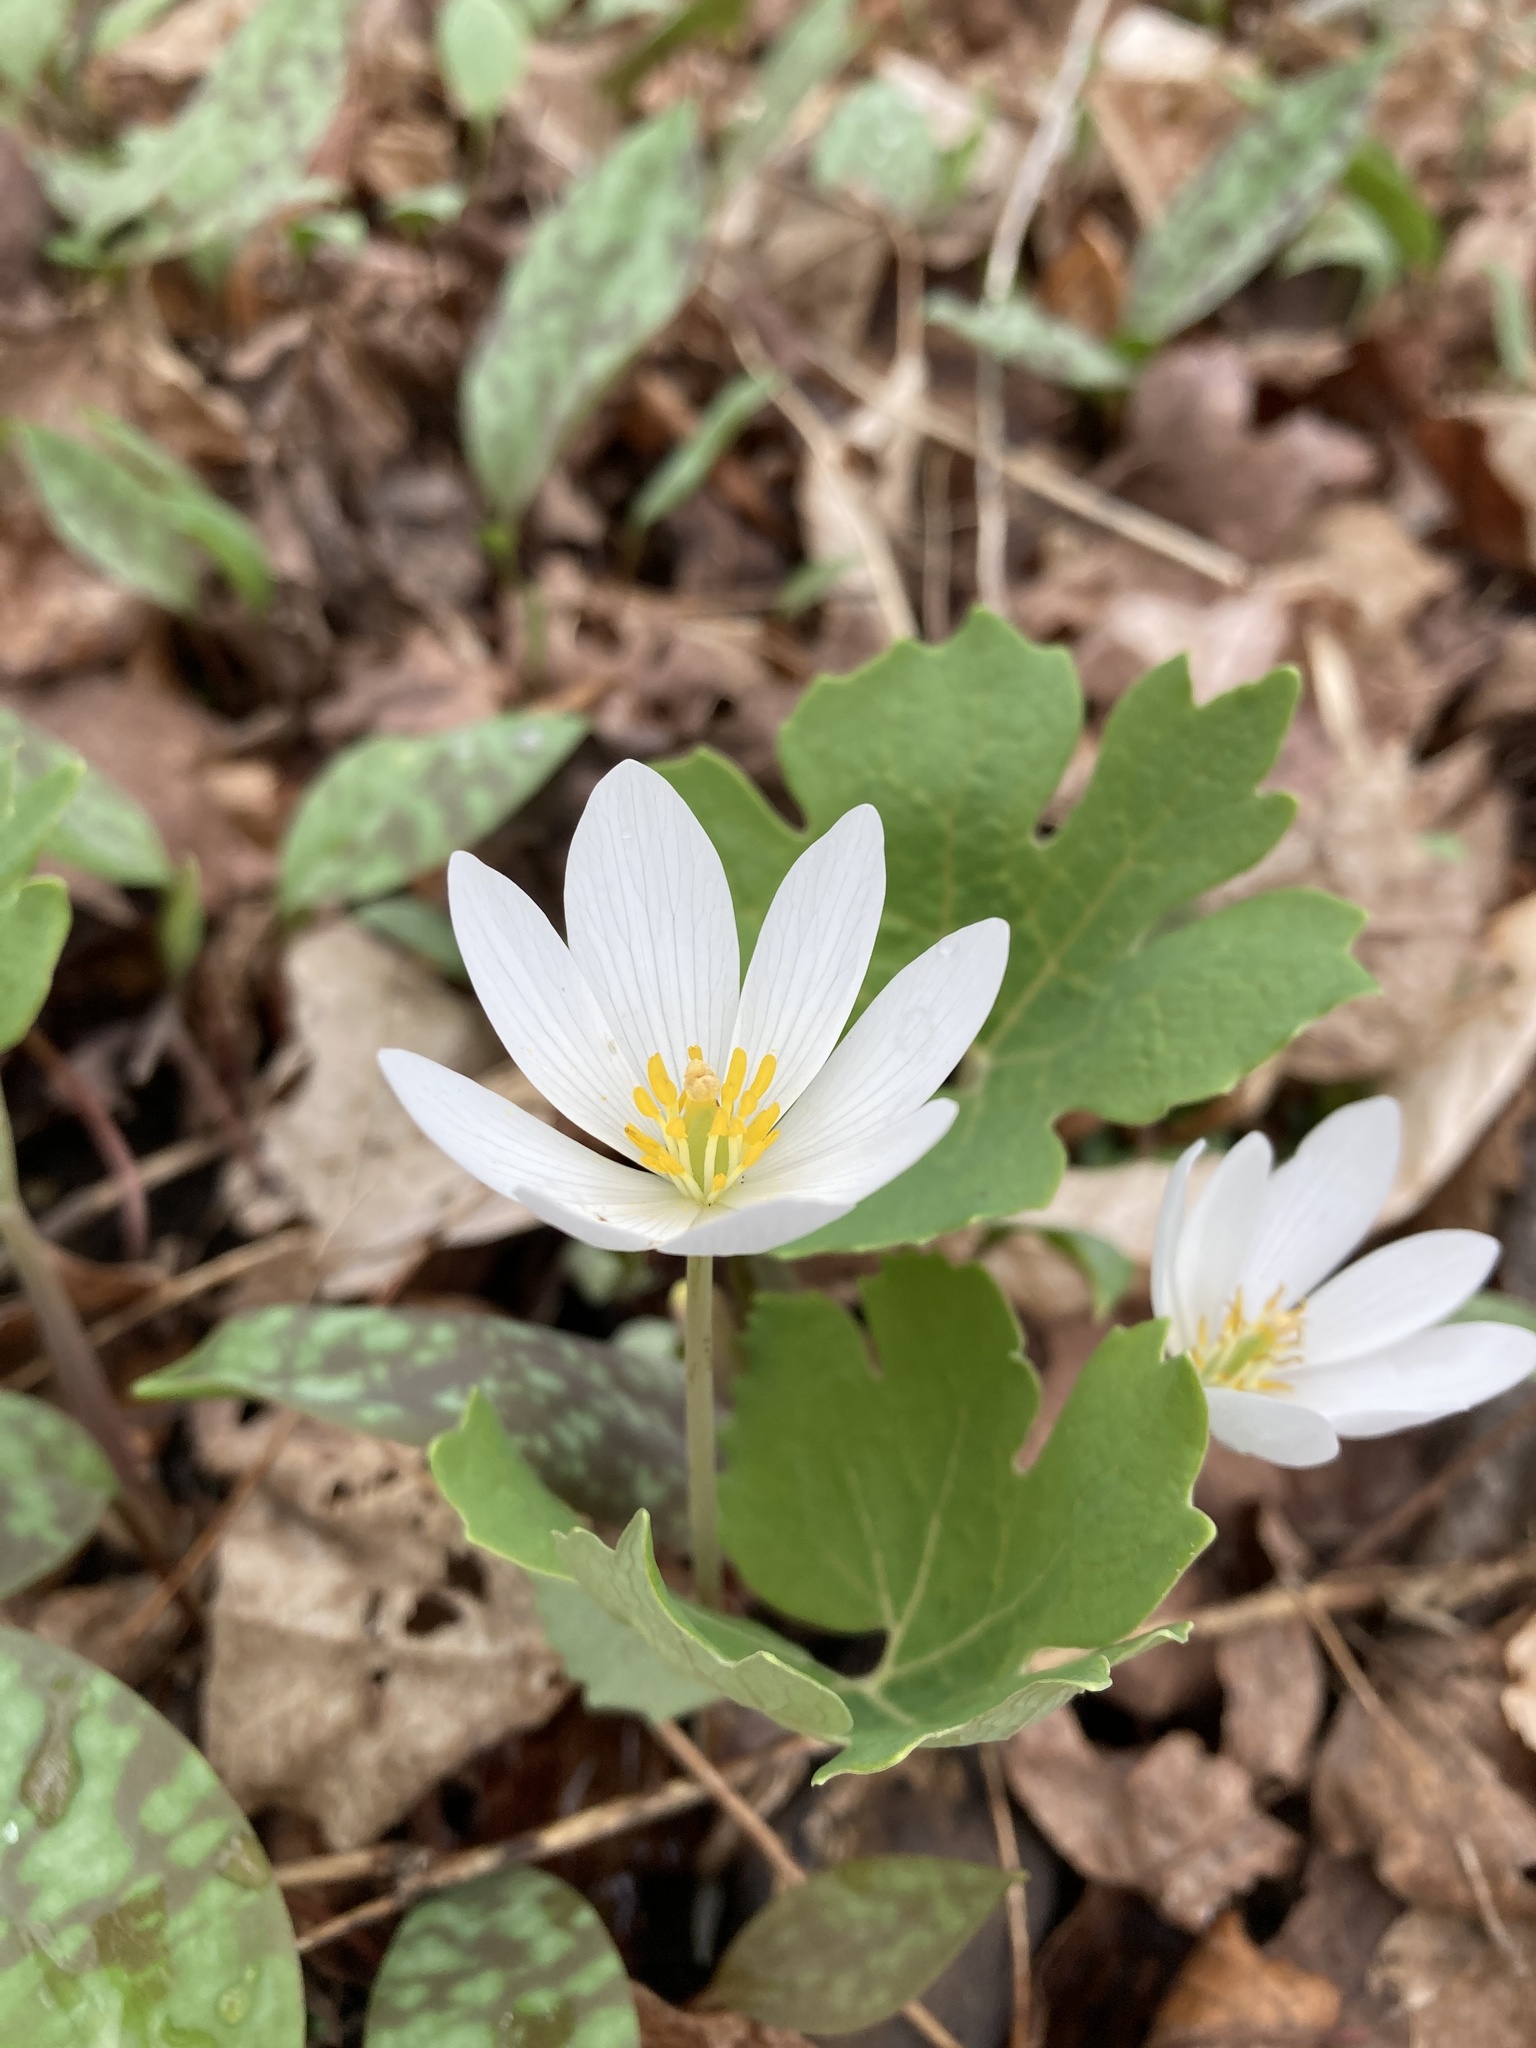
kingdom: Plantae
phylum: Tracheophyta
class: Magnoliopsida
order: Ranunculales
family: Papaveraceae
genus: Sanguinaria
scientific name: Sanguinaria canadensis
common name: Bloodroot
